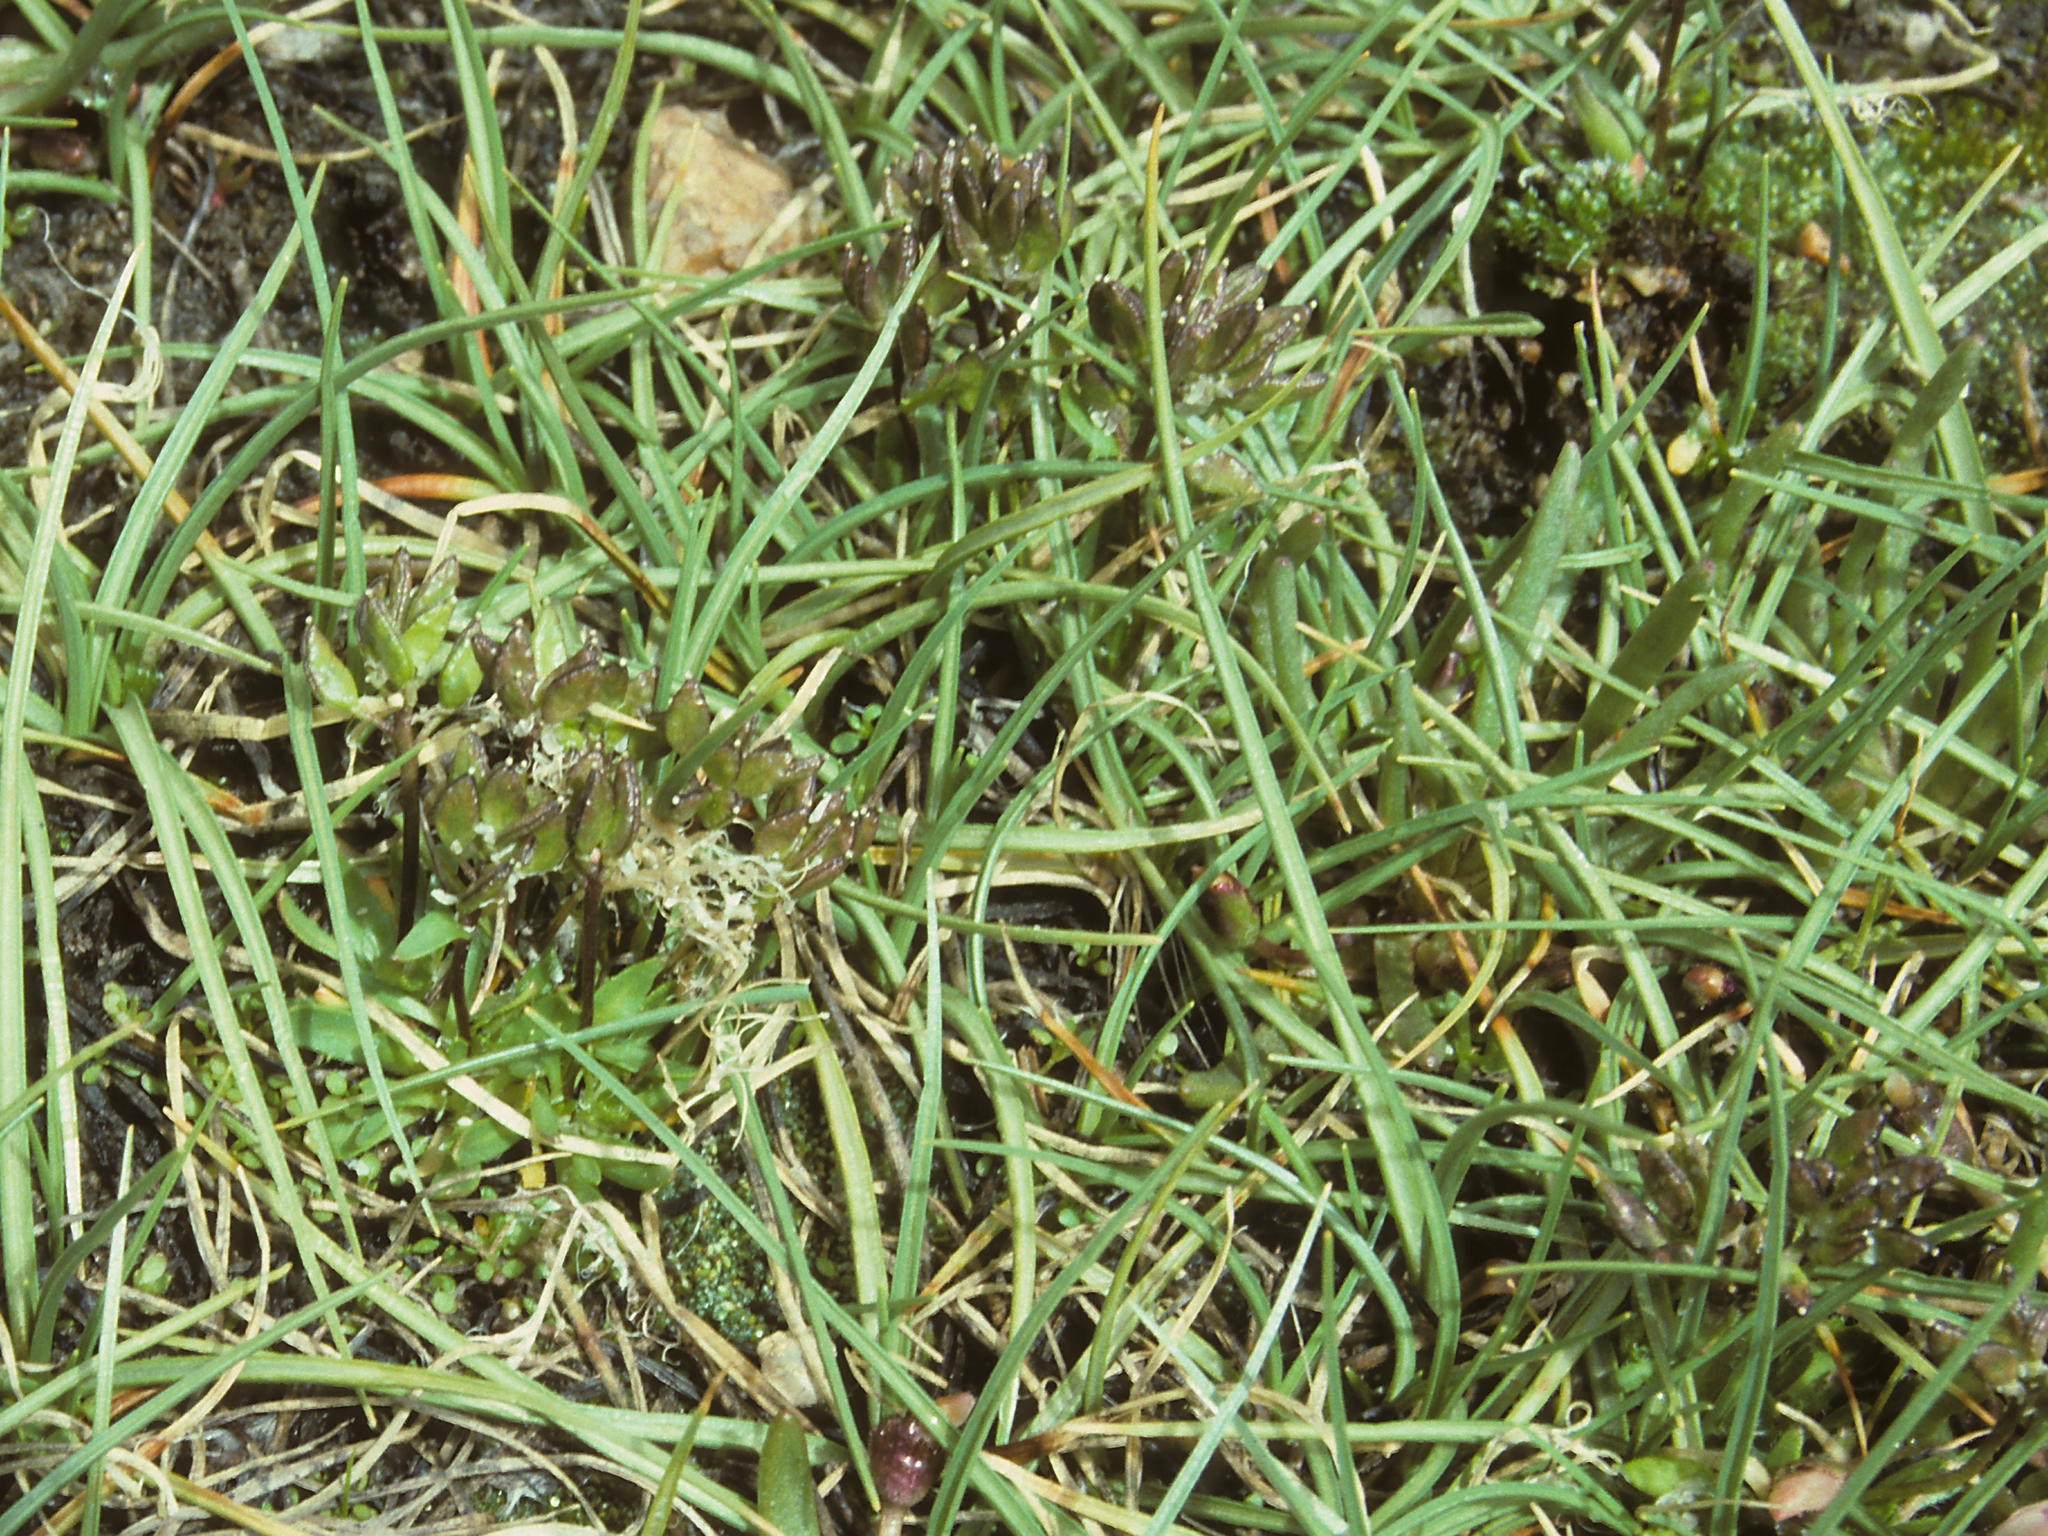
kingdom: Plantae
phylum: Tracheophyta
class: Magnoliopsida
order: Brassicales
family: Brassicaceae
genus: Draba
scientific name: Draba monoensis
